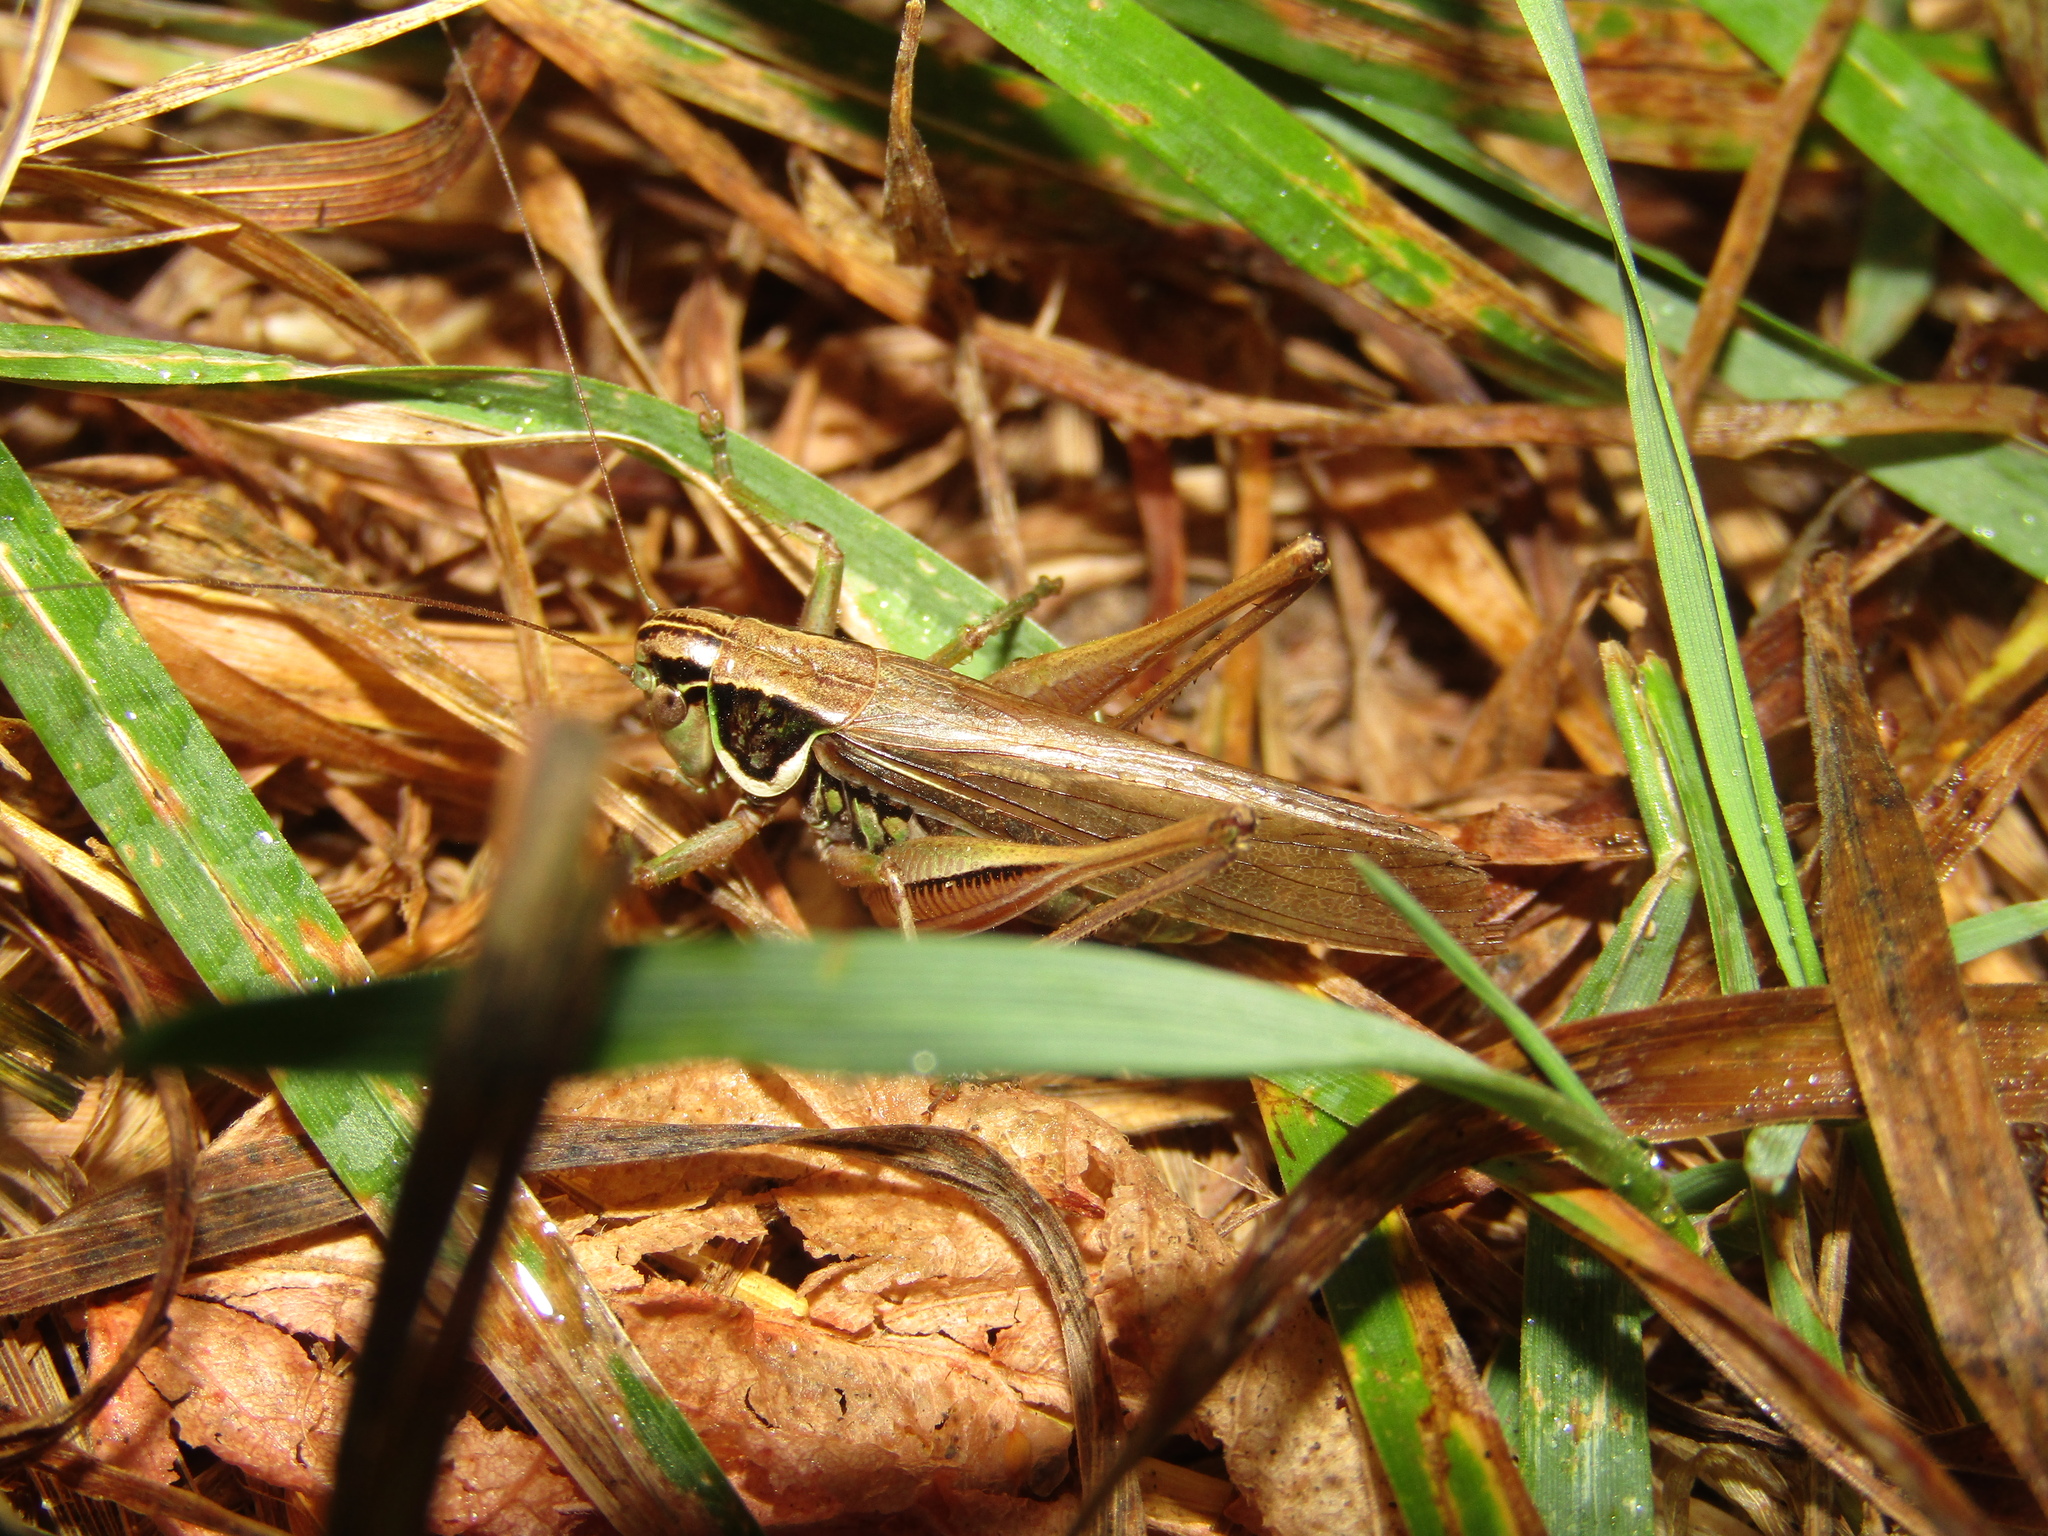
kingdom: Animalia
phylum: Arthropoda
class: Insecta
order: Orthoptera
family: Tettigoniidae
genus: Roeseliana
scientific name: Roeseliana roeselii
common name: Roesel's bush cricket
